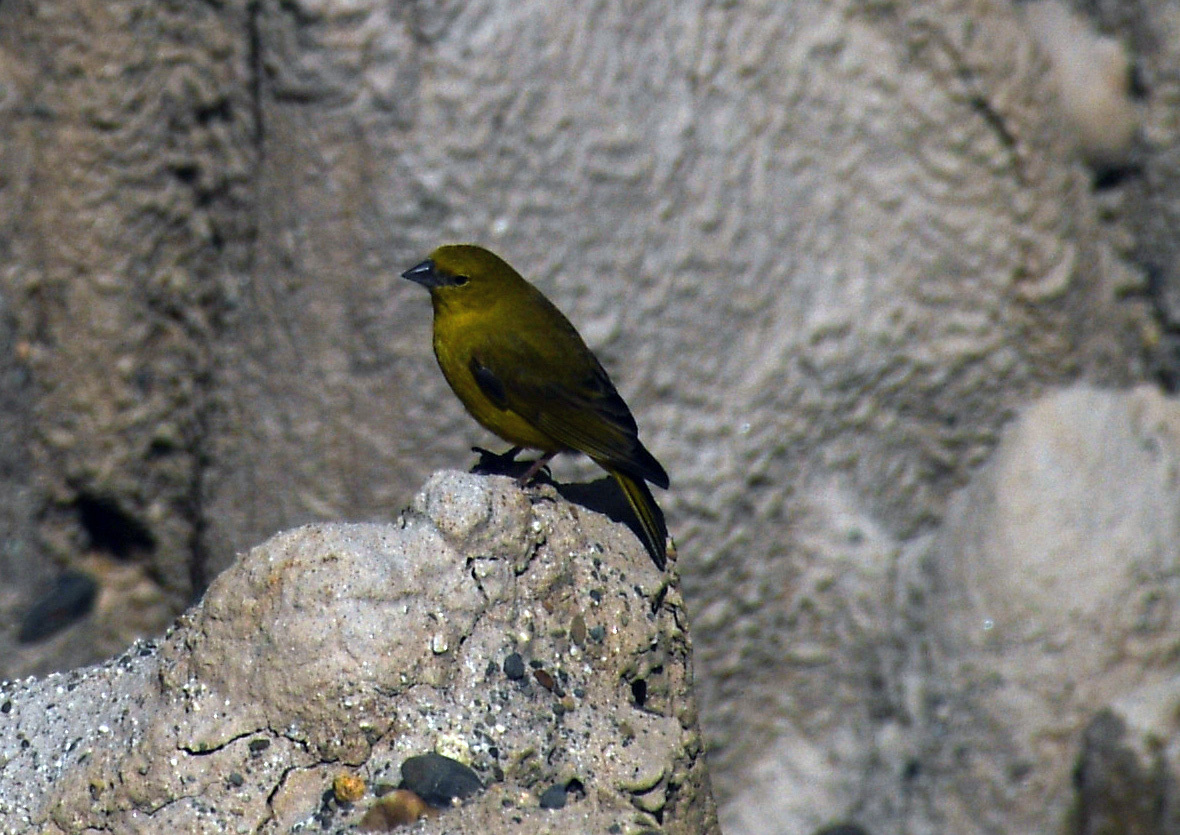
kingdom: Animalia
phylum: Chordata
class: Aves
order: Passeriformes
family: Thraupidae
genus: Sicalis
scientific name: Sicalis olivascens
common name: Greenish yellow finch
